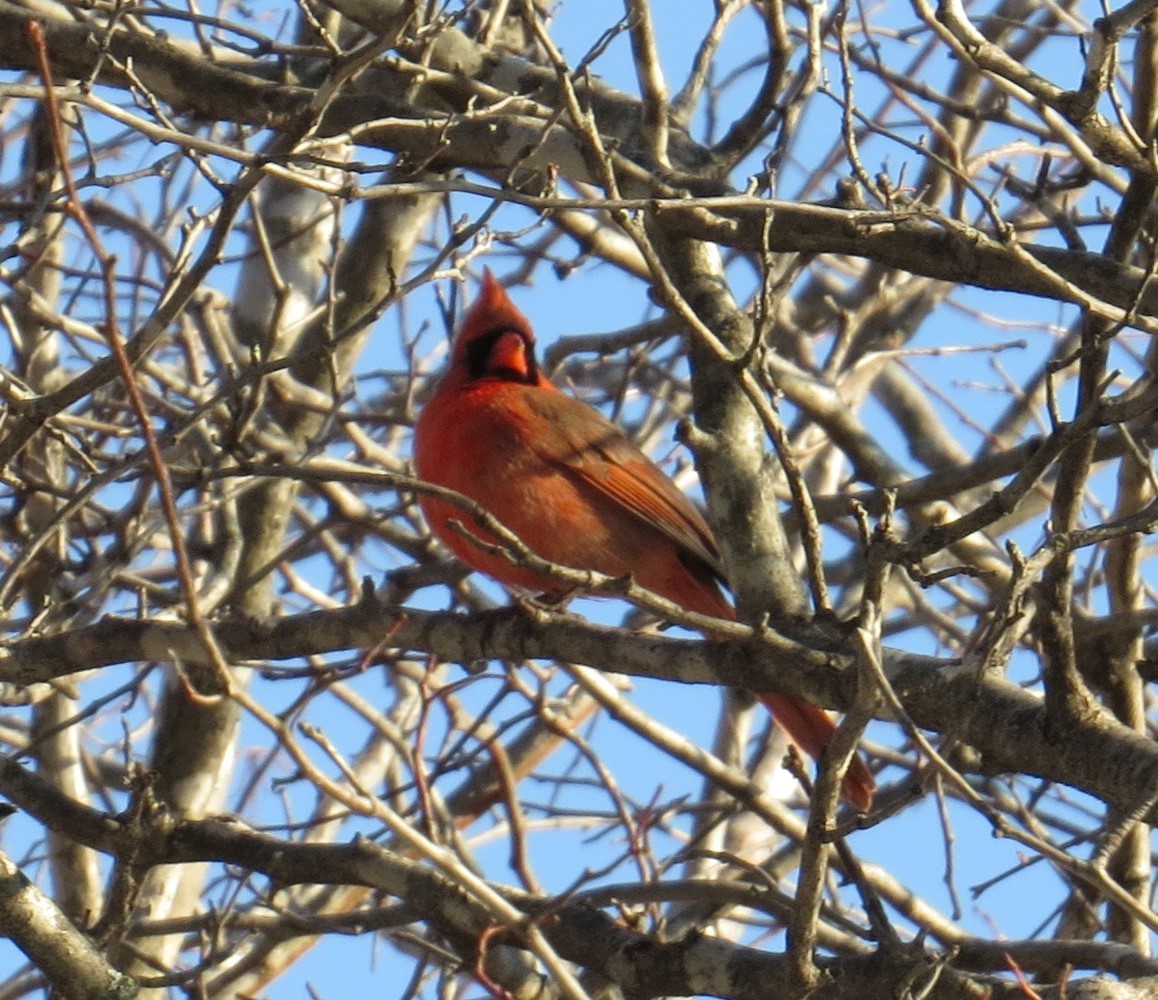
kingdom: Animalia
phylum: Chordata
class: Aves
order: Passeriformes
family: Cardinalidae
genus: Cardinalis
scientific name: Cardinalis cardinalis
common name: Northern cardinal
